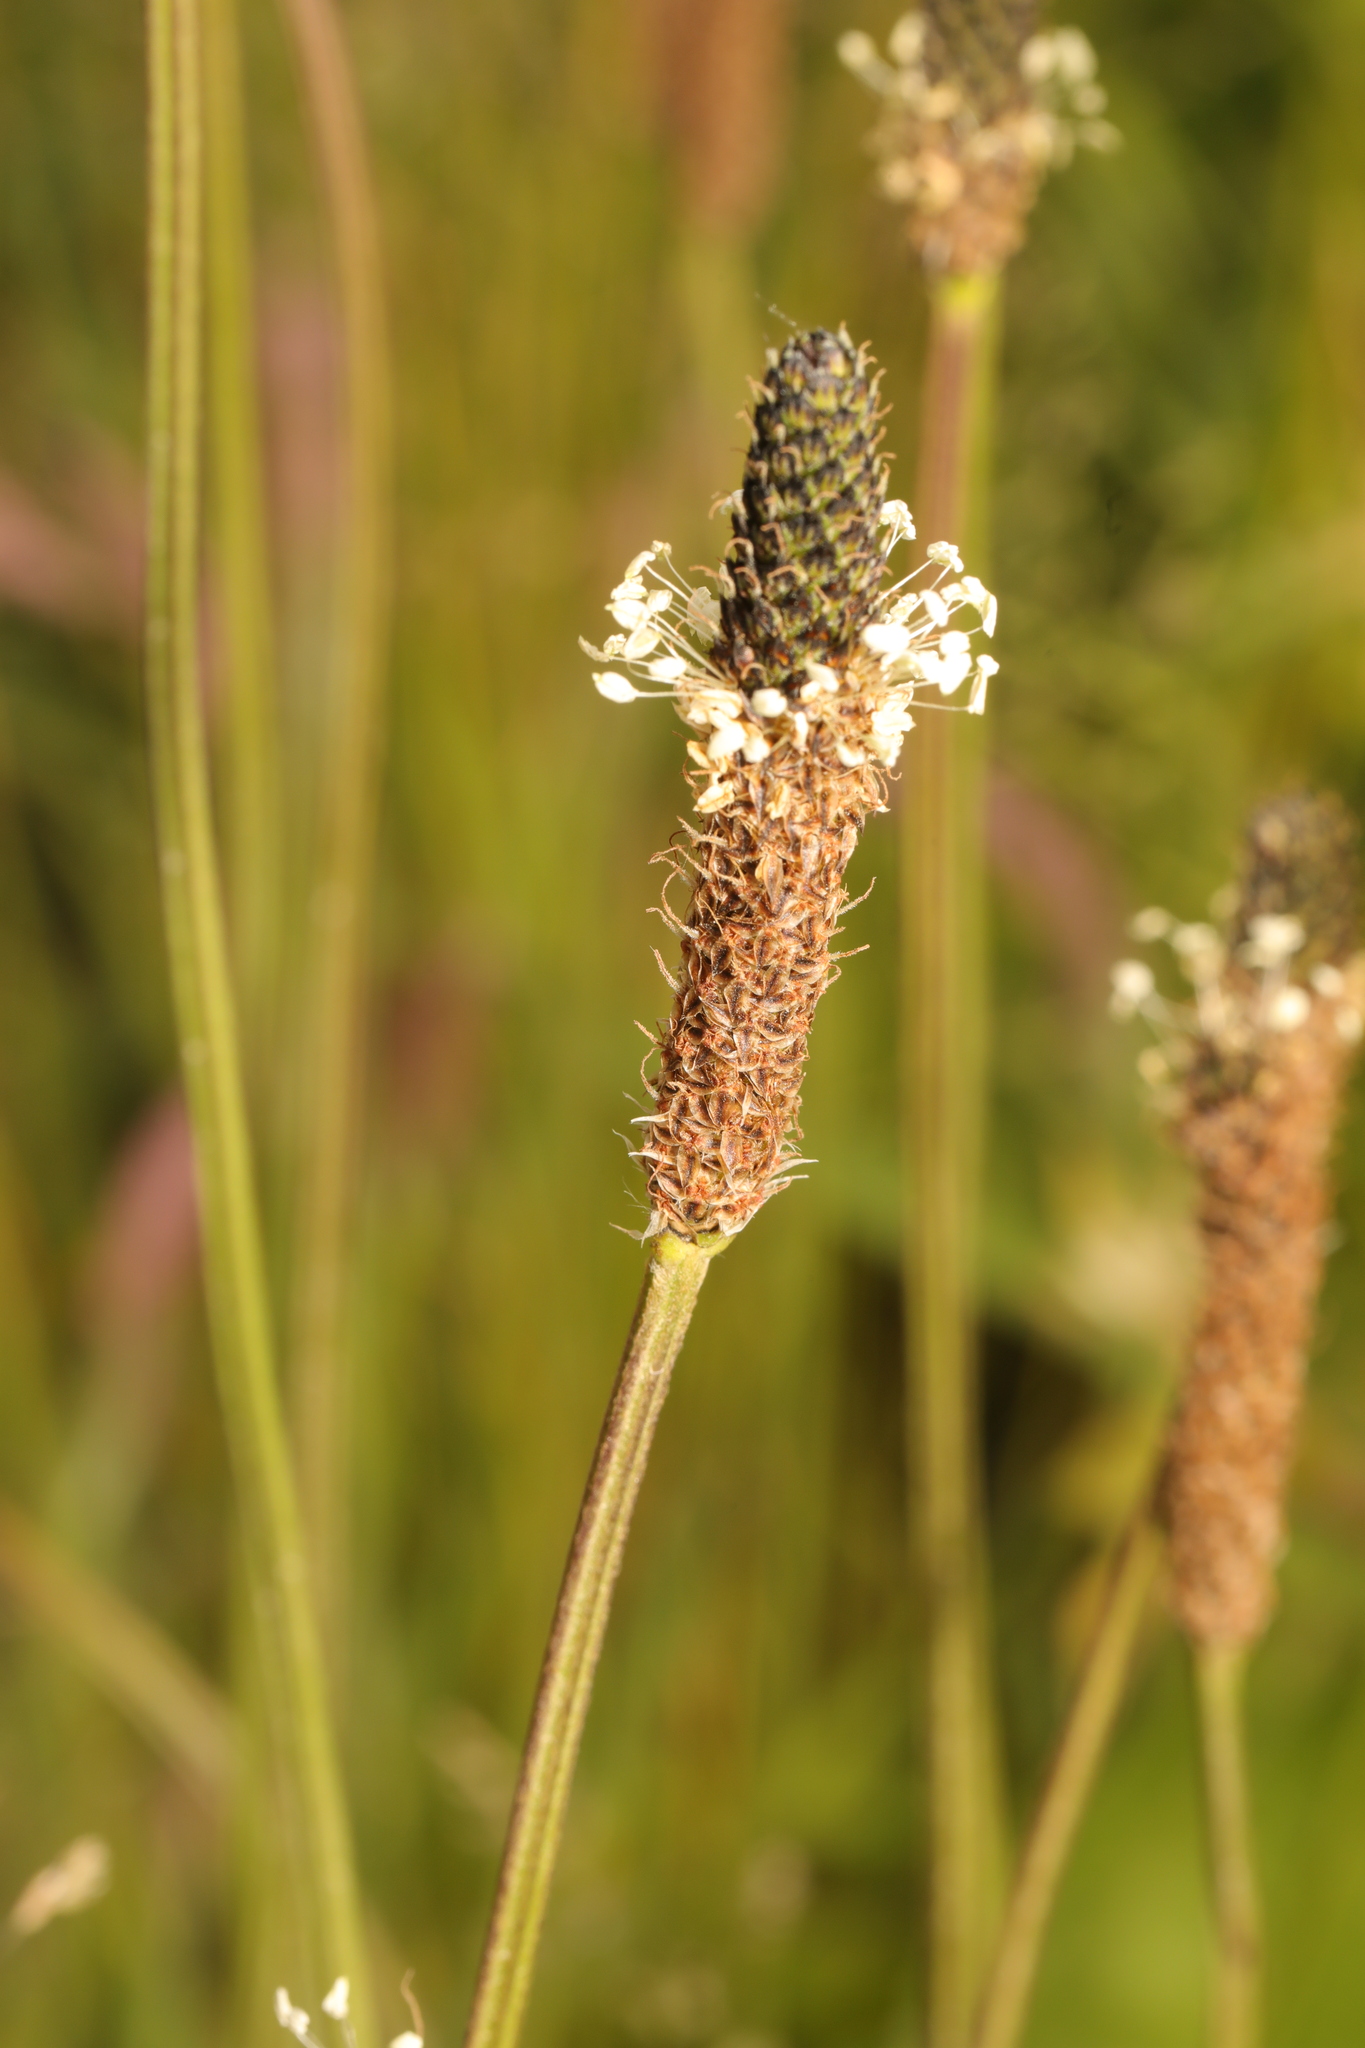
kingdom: Plantae
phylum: Tracheophyta
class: Magnoliopsida
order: Lamiales
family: Plantaginaceae
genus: Plantago
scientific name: Plantago lanceolata
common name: Ribwort plantain
